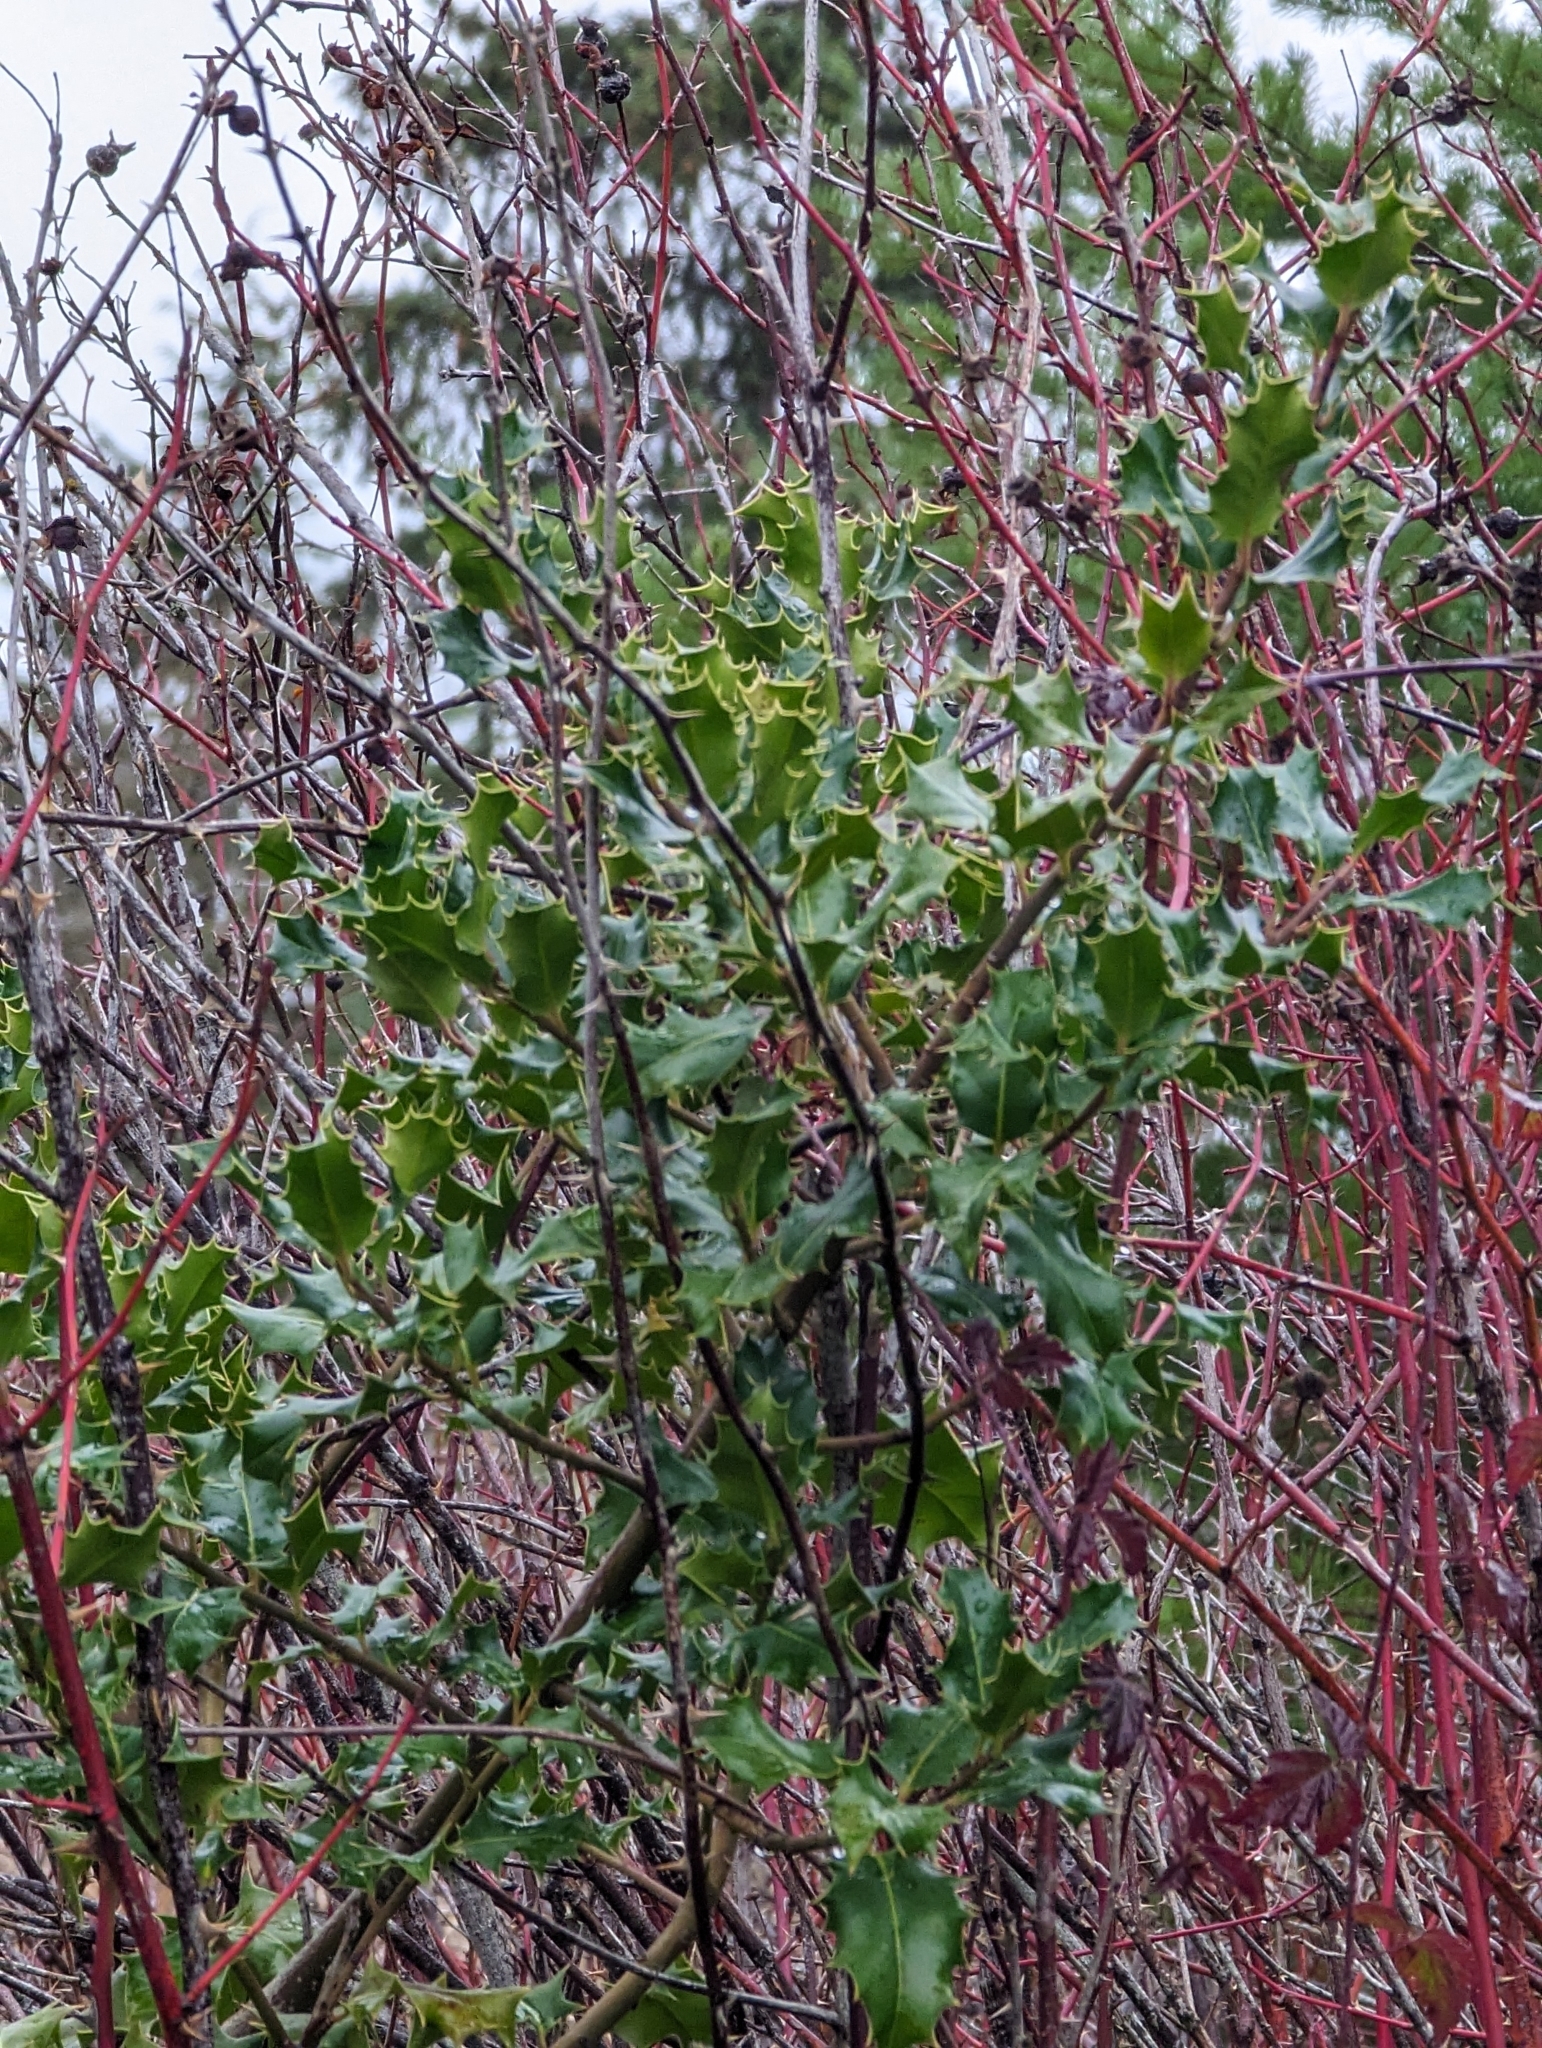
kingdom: Plantae
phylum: Tracheophyta
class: Magnoliopsida
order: Aquifoliales
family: Aquifoliaceae
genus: Ilex
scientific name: Ilex aquifolium
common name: English holly
